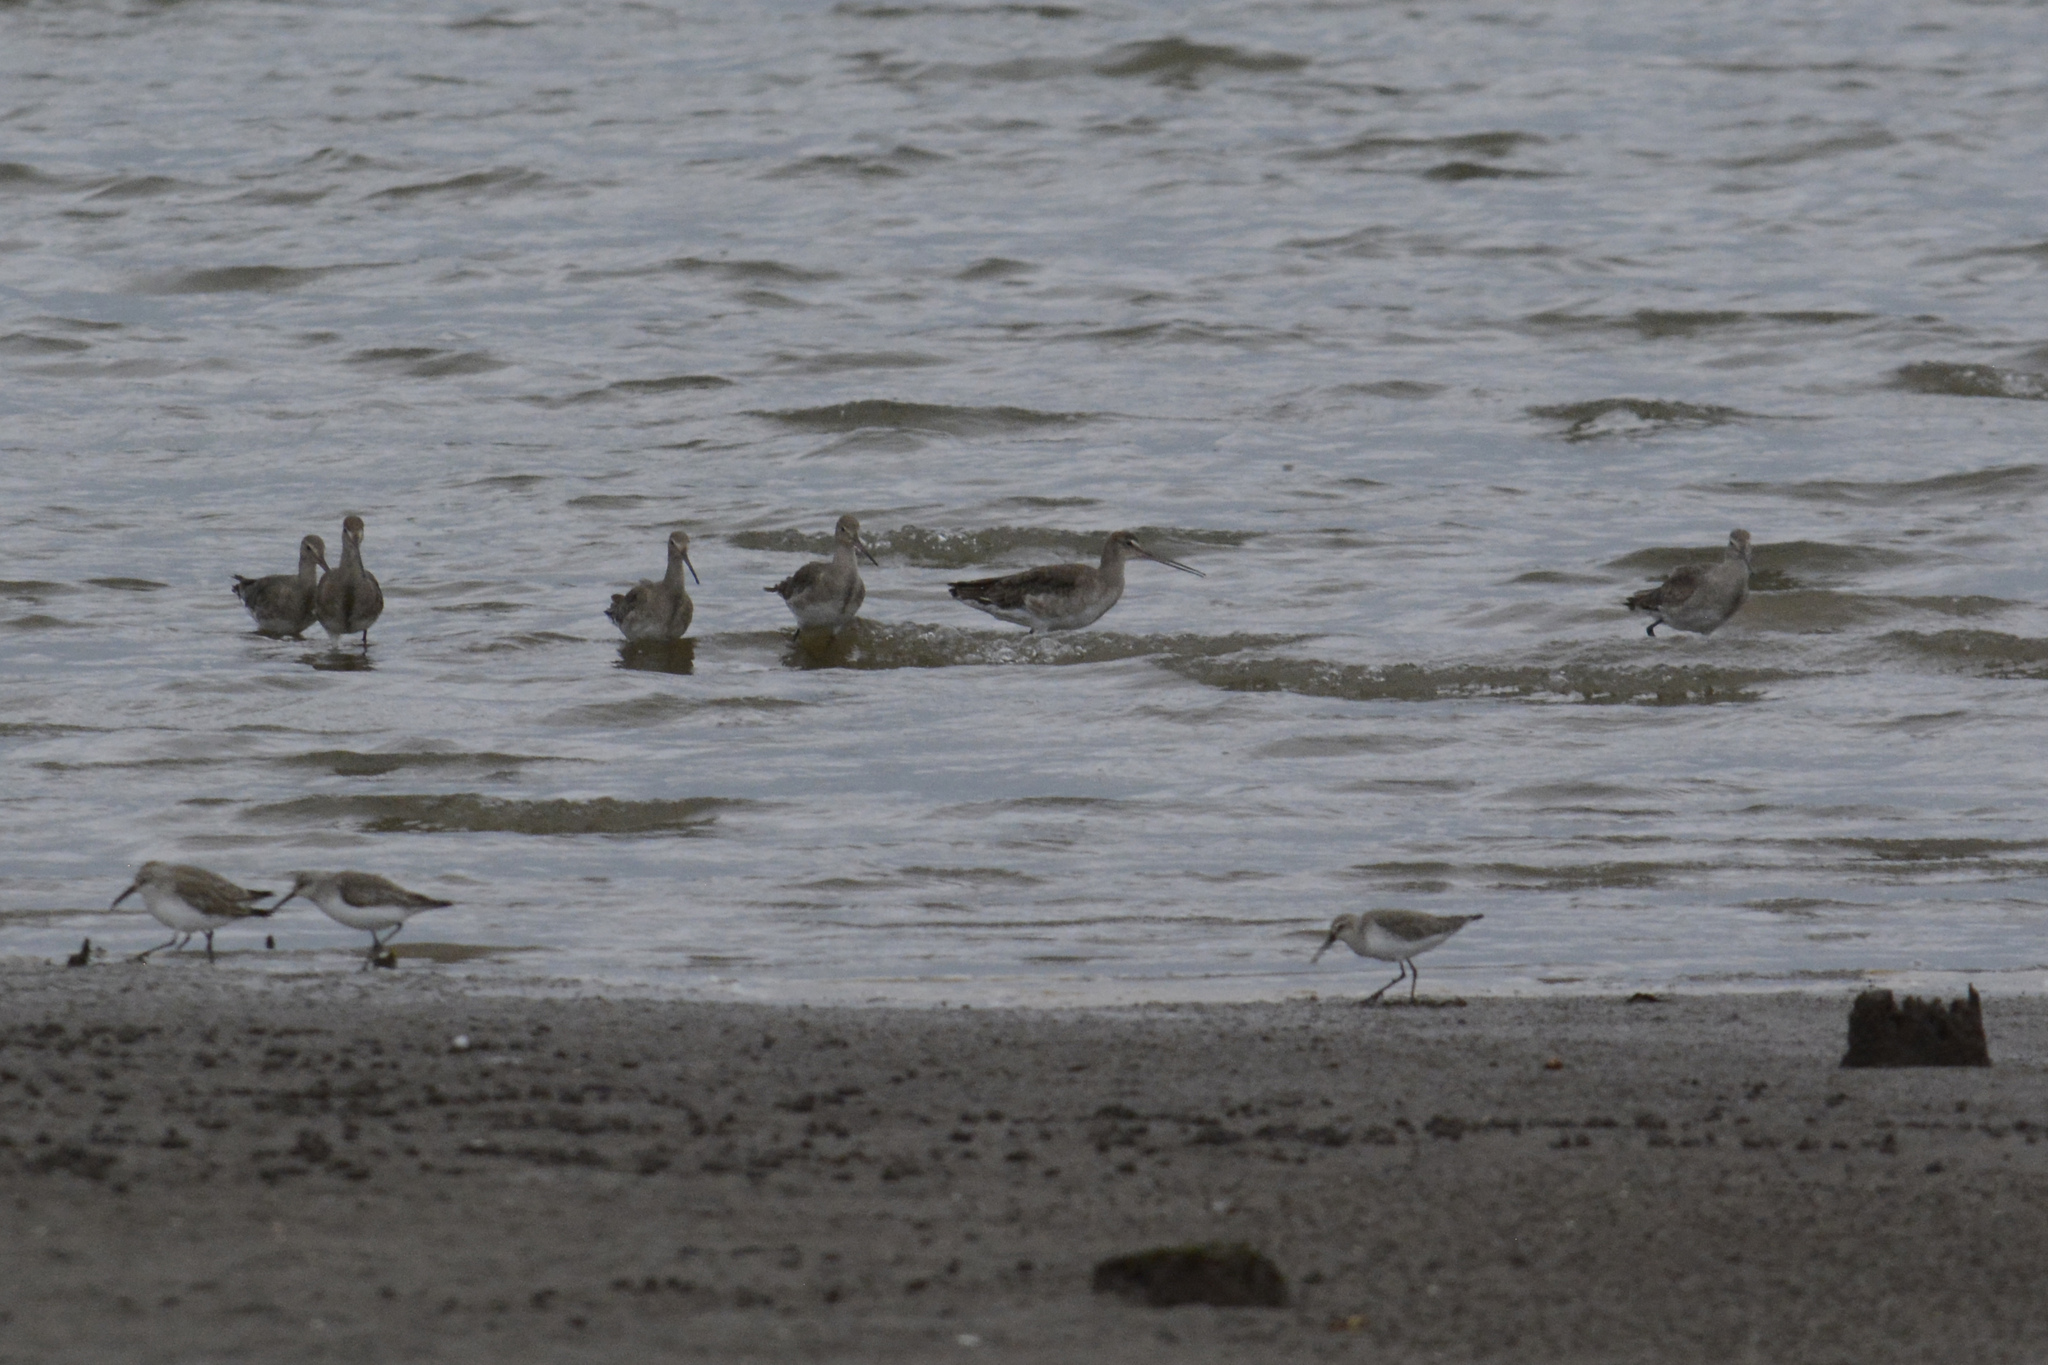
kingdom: Animalia
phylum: Chordata
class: Aves
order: Charadriiformes
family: Scolopacidae
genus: Limosa
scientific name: Limosa limosa
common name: Black-tailed godwit
